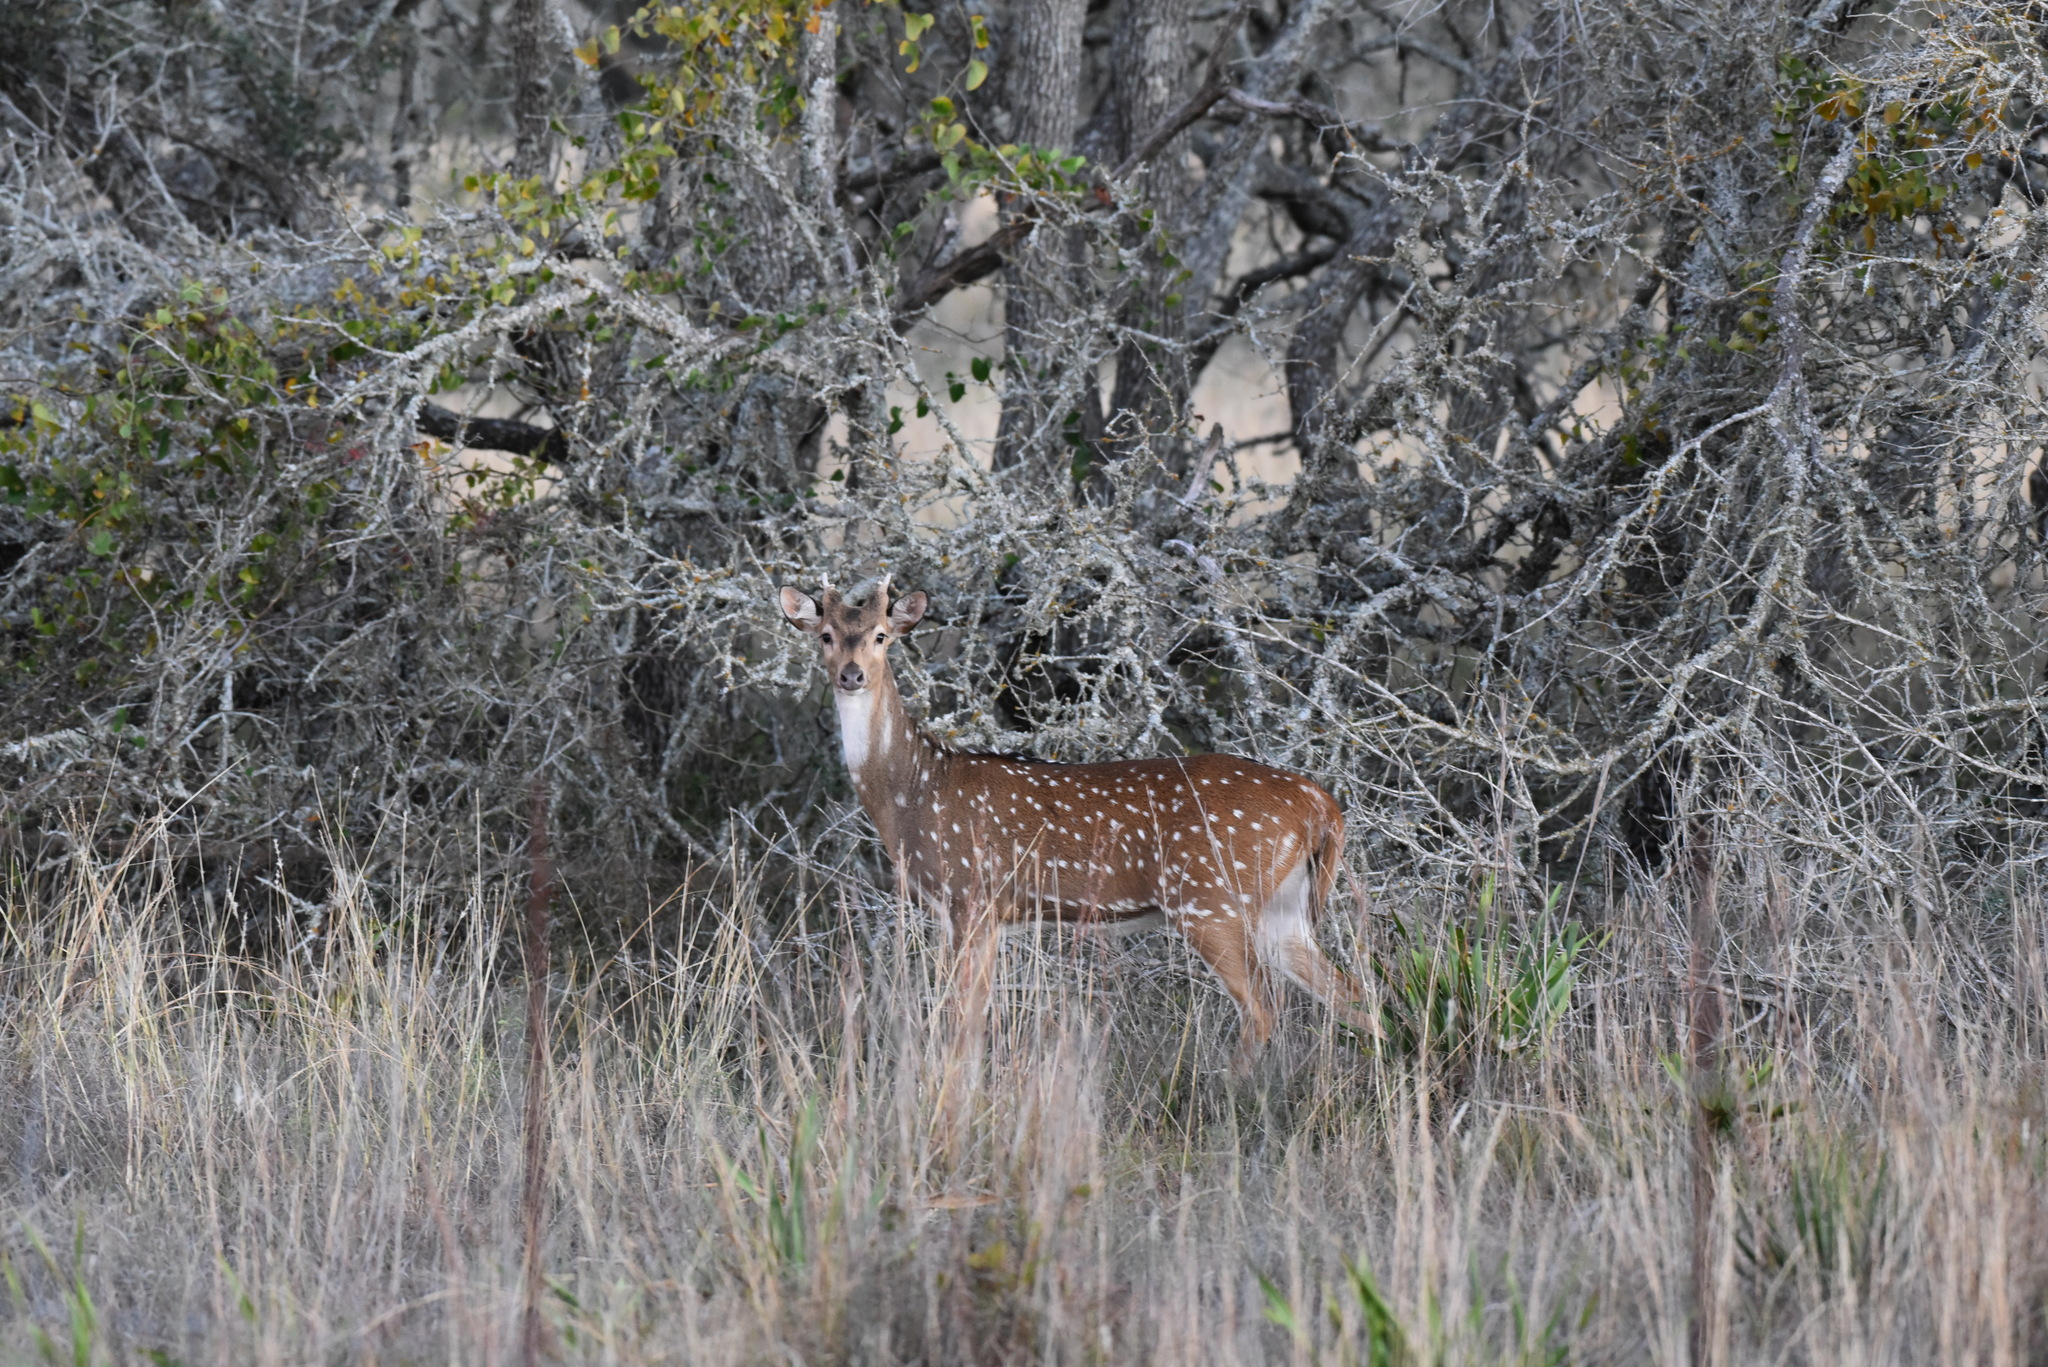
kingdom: Animalia
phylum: Chordata
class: Mammalia
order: Artiodactyla
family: Cervidae
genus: Axis
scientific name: Axis axis
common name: Chital
